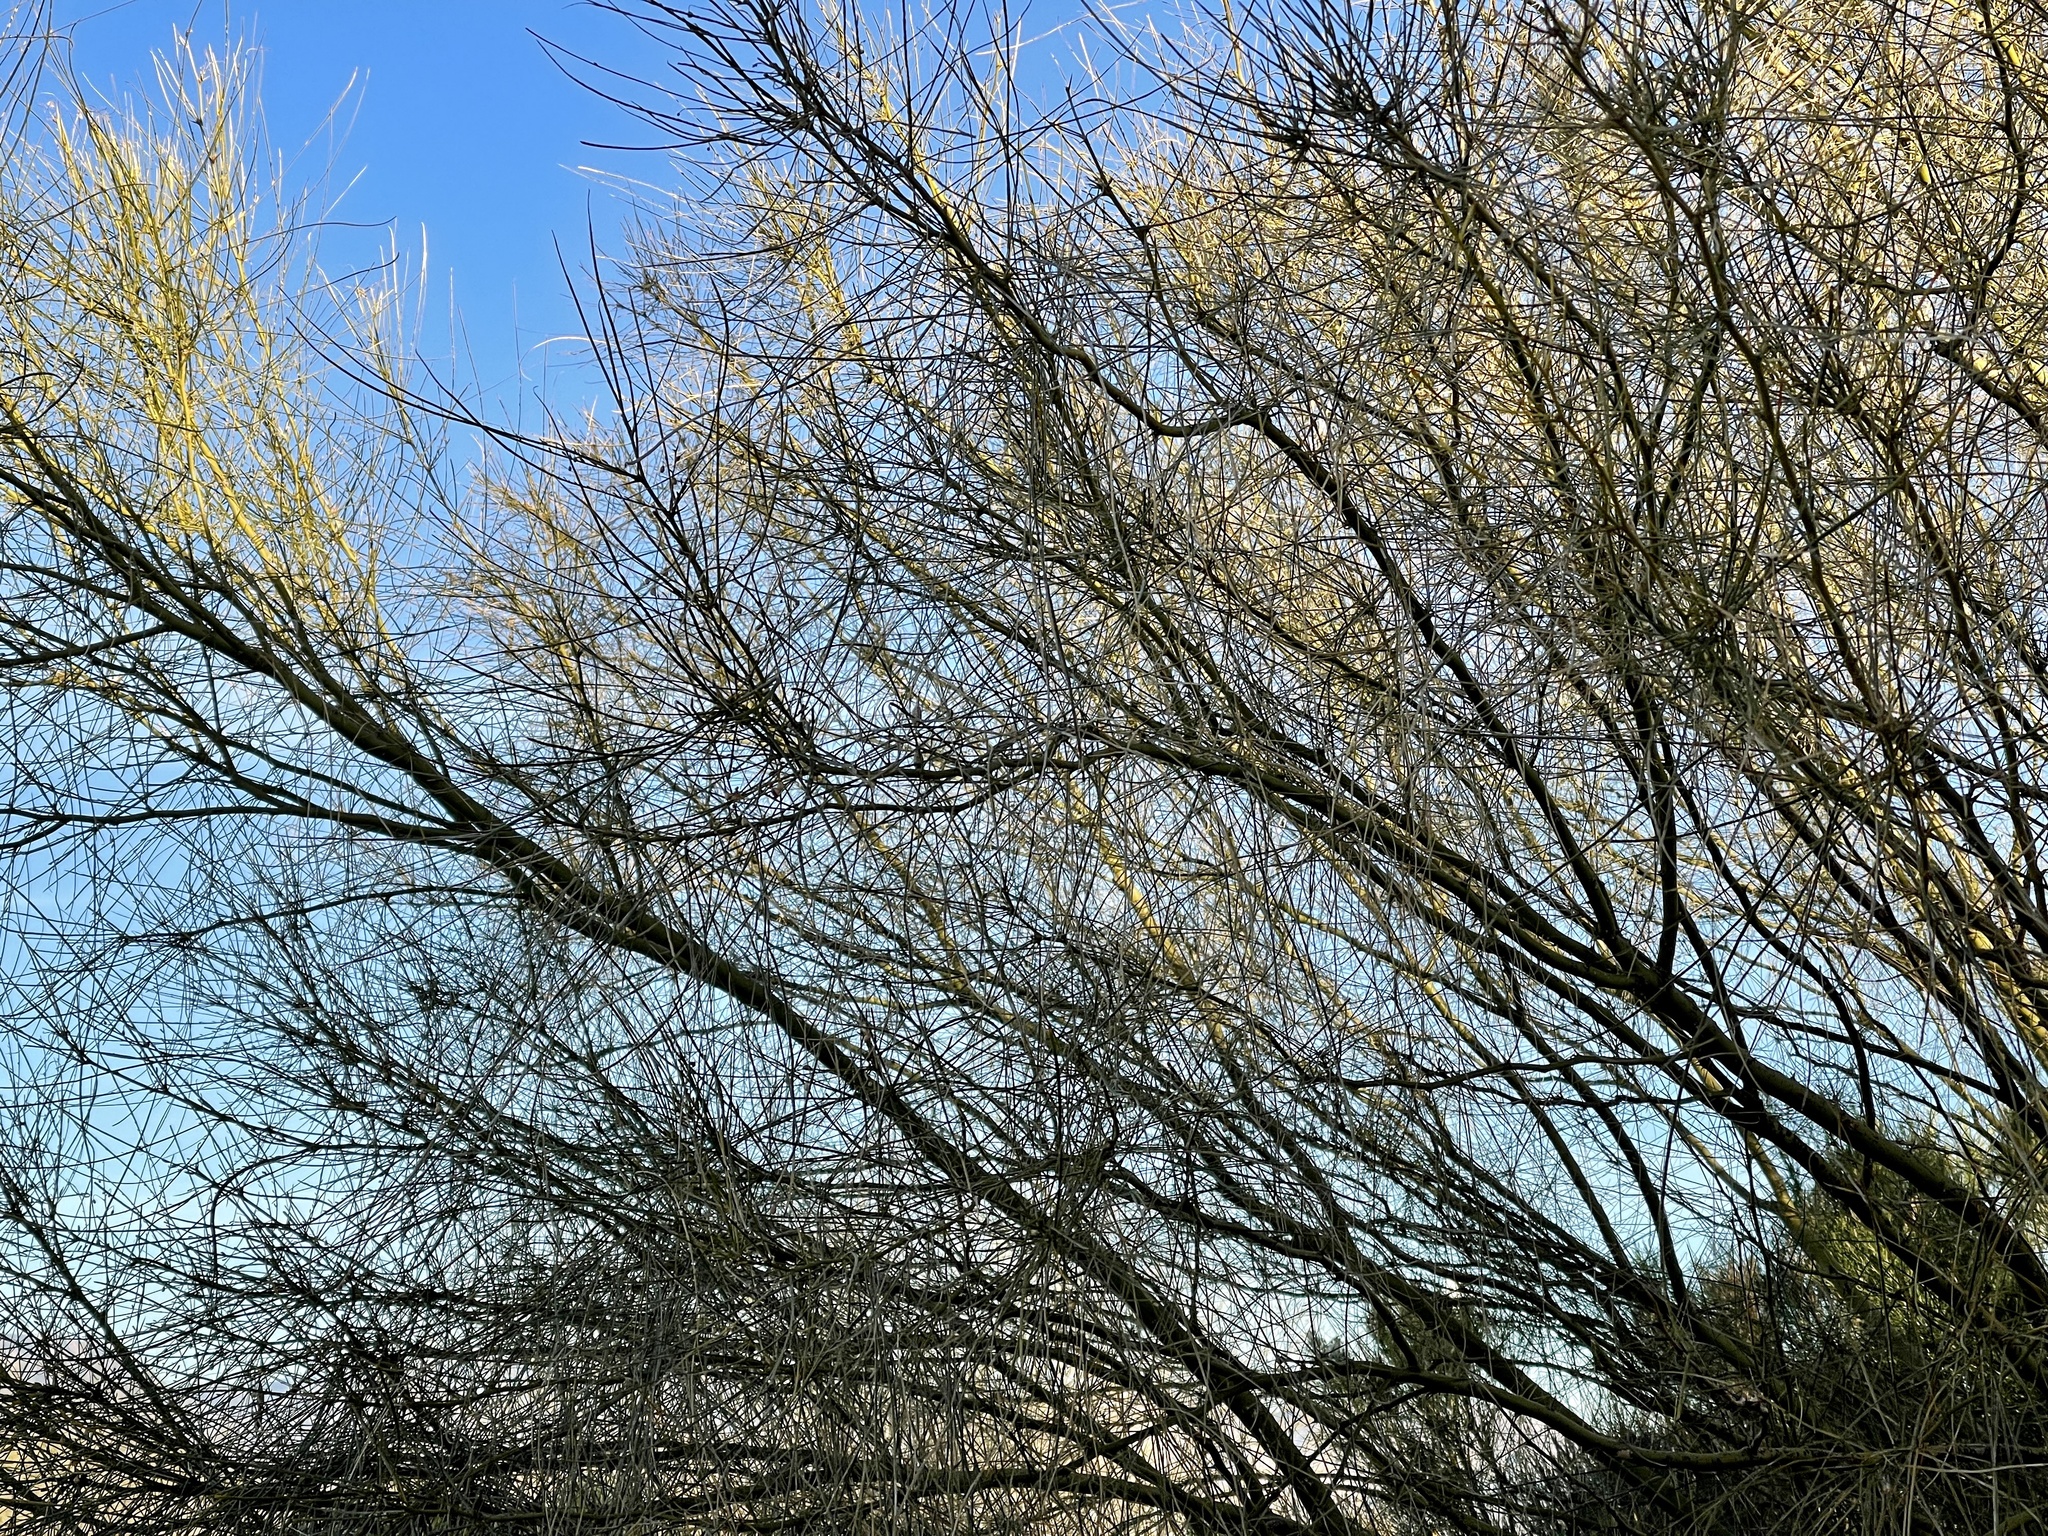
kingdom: Plantae
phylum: Tracheophyta
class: Magnoliopsida
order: Fabales
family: Fabaceae
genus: Parkinsonia
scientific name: Parkinsonia aculeata
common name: Jerusalem thorn
